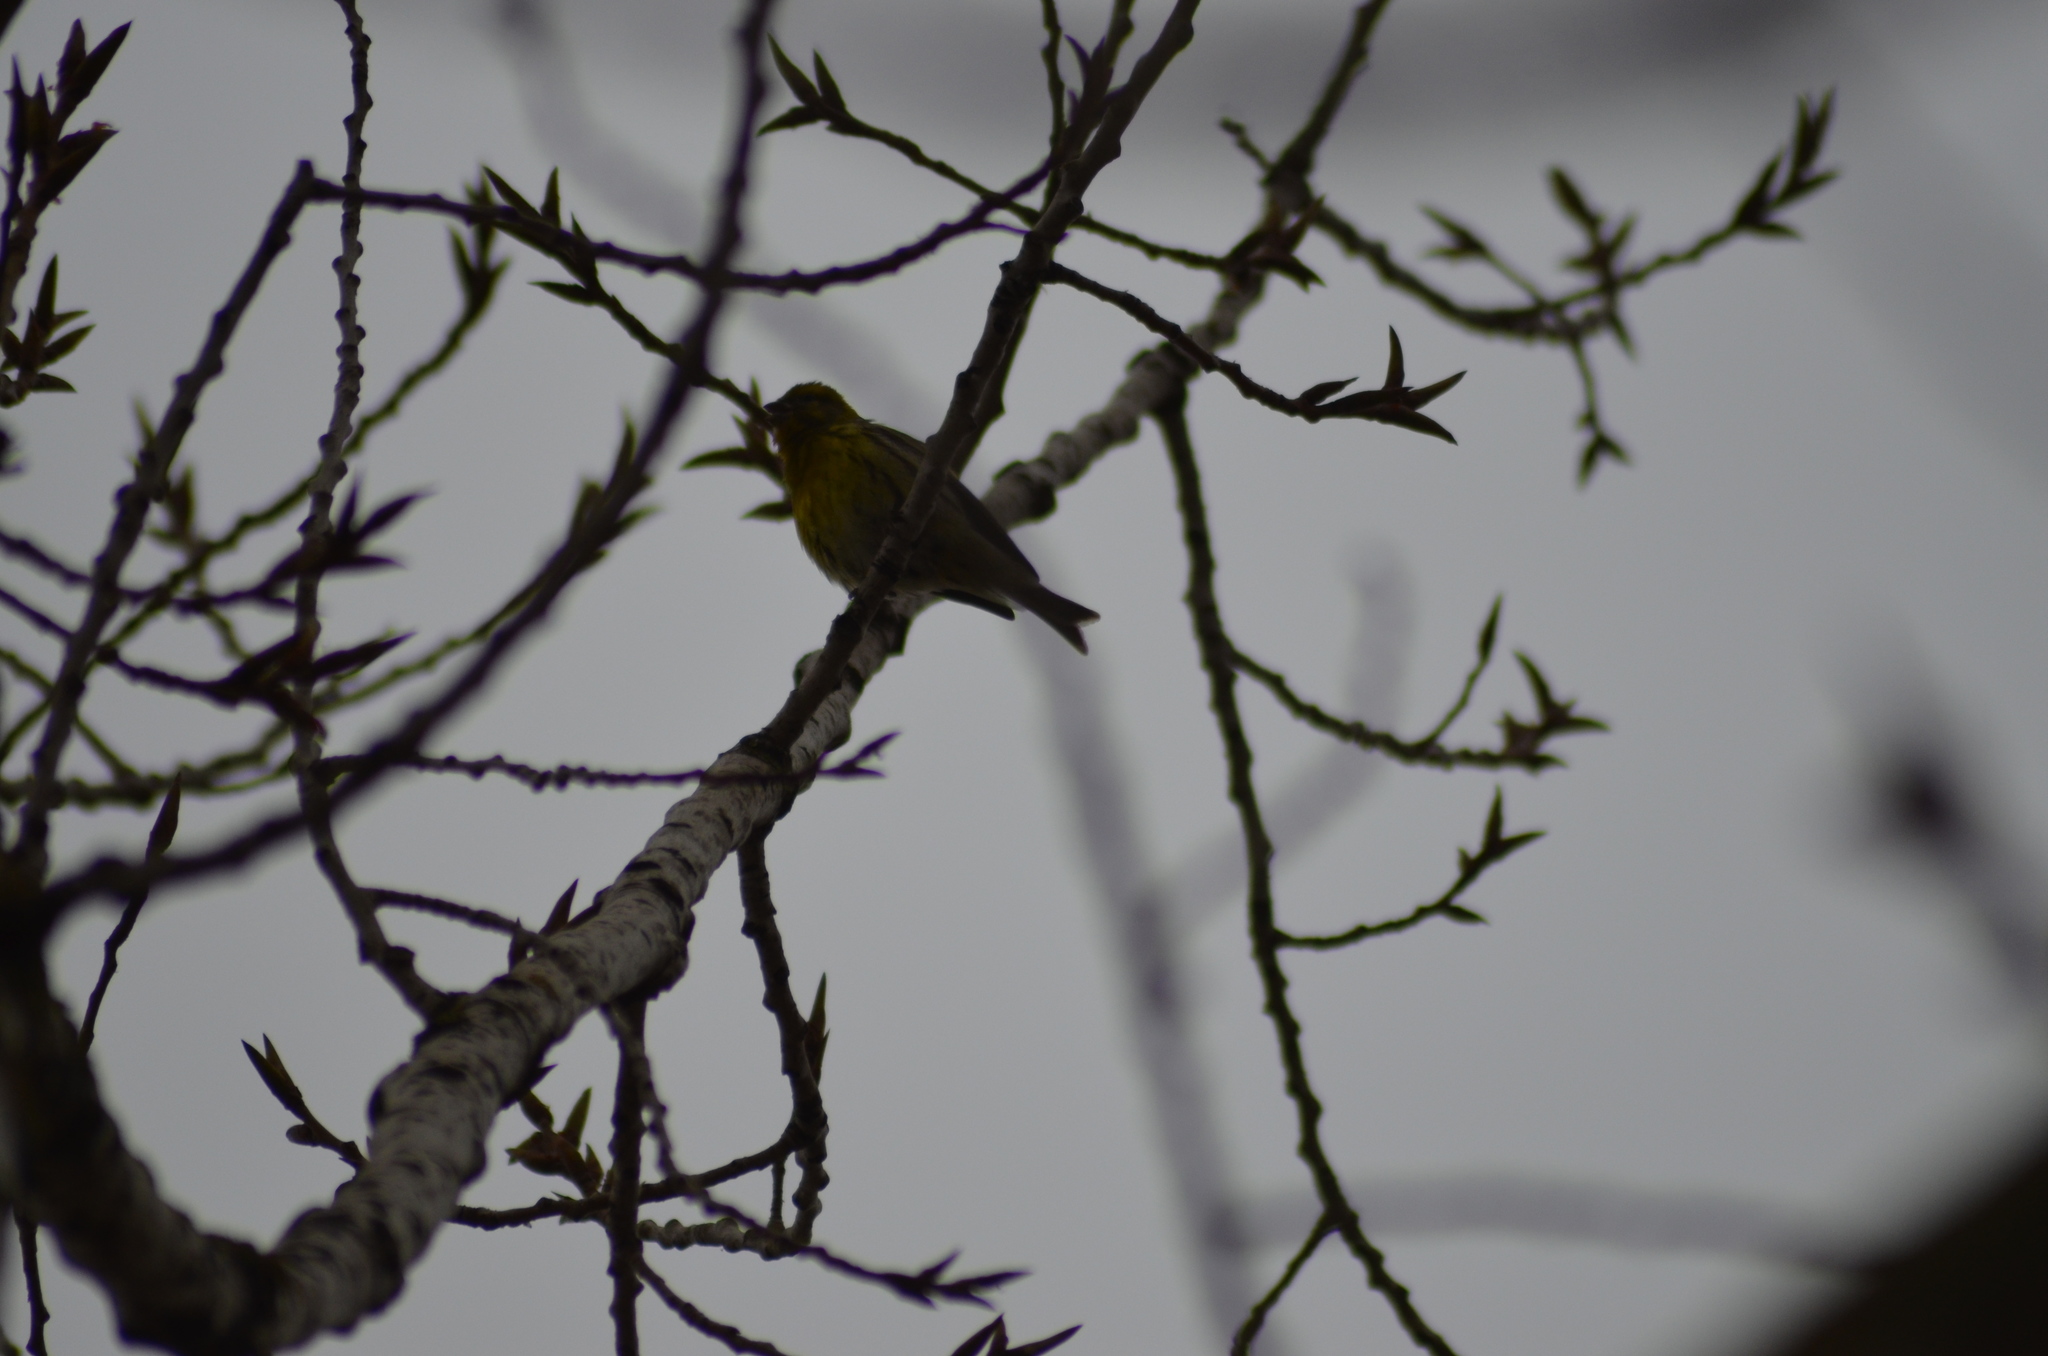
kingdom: Animalia
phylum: Chordata
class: Aves
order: Passeriformes
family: Fringillidae
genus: Serinus
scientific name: Serinus serinus
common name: European serin
